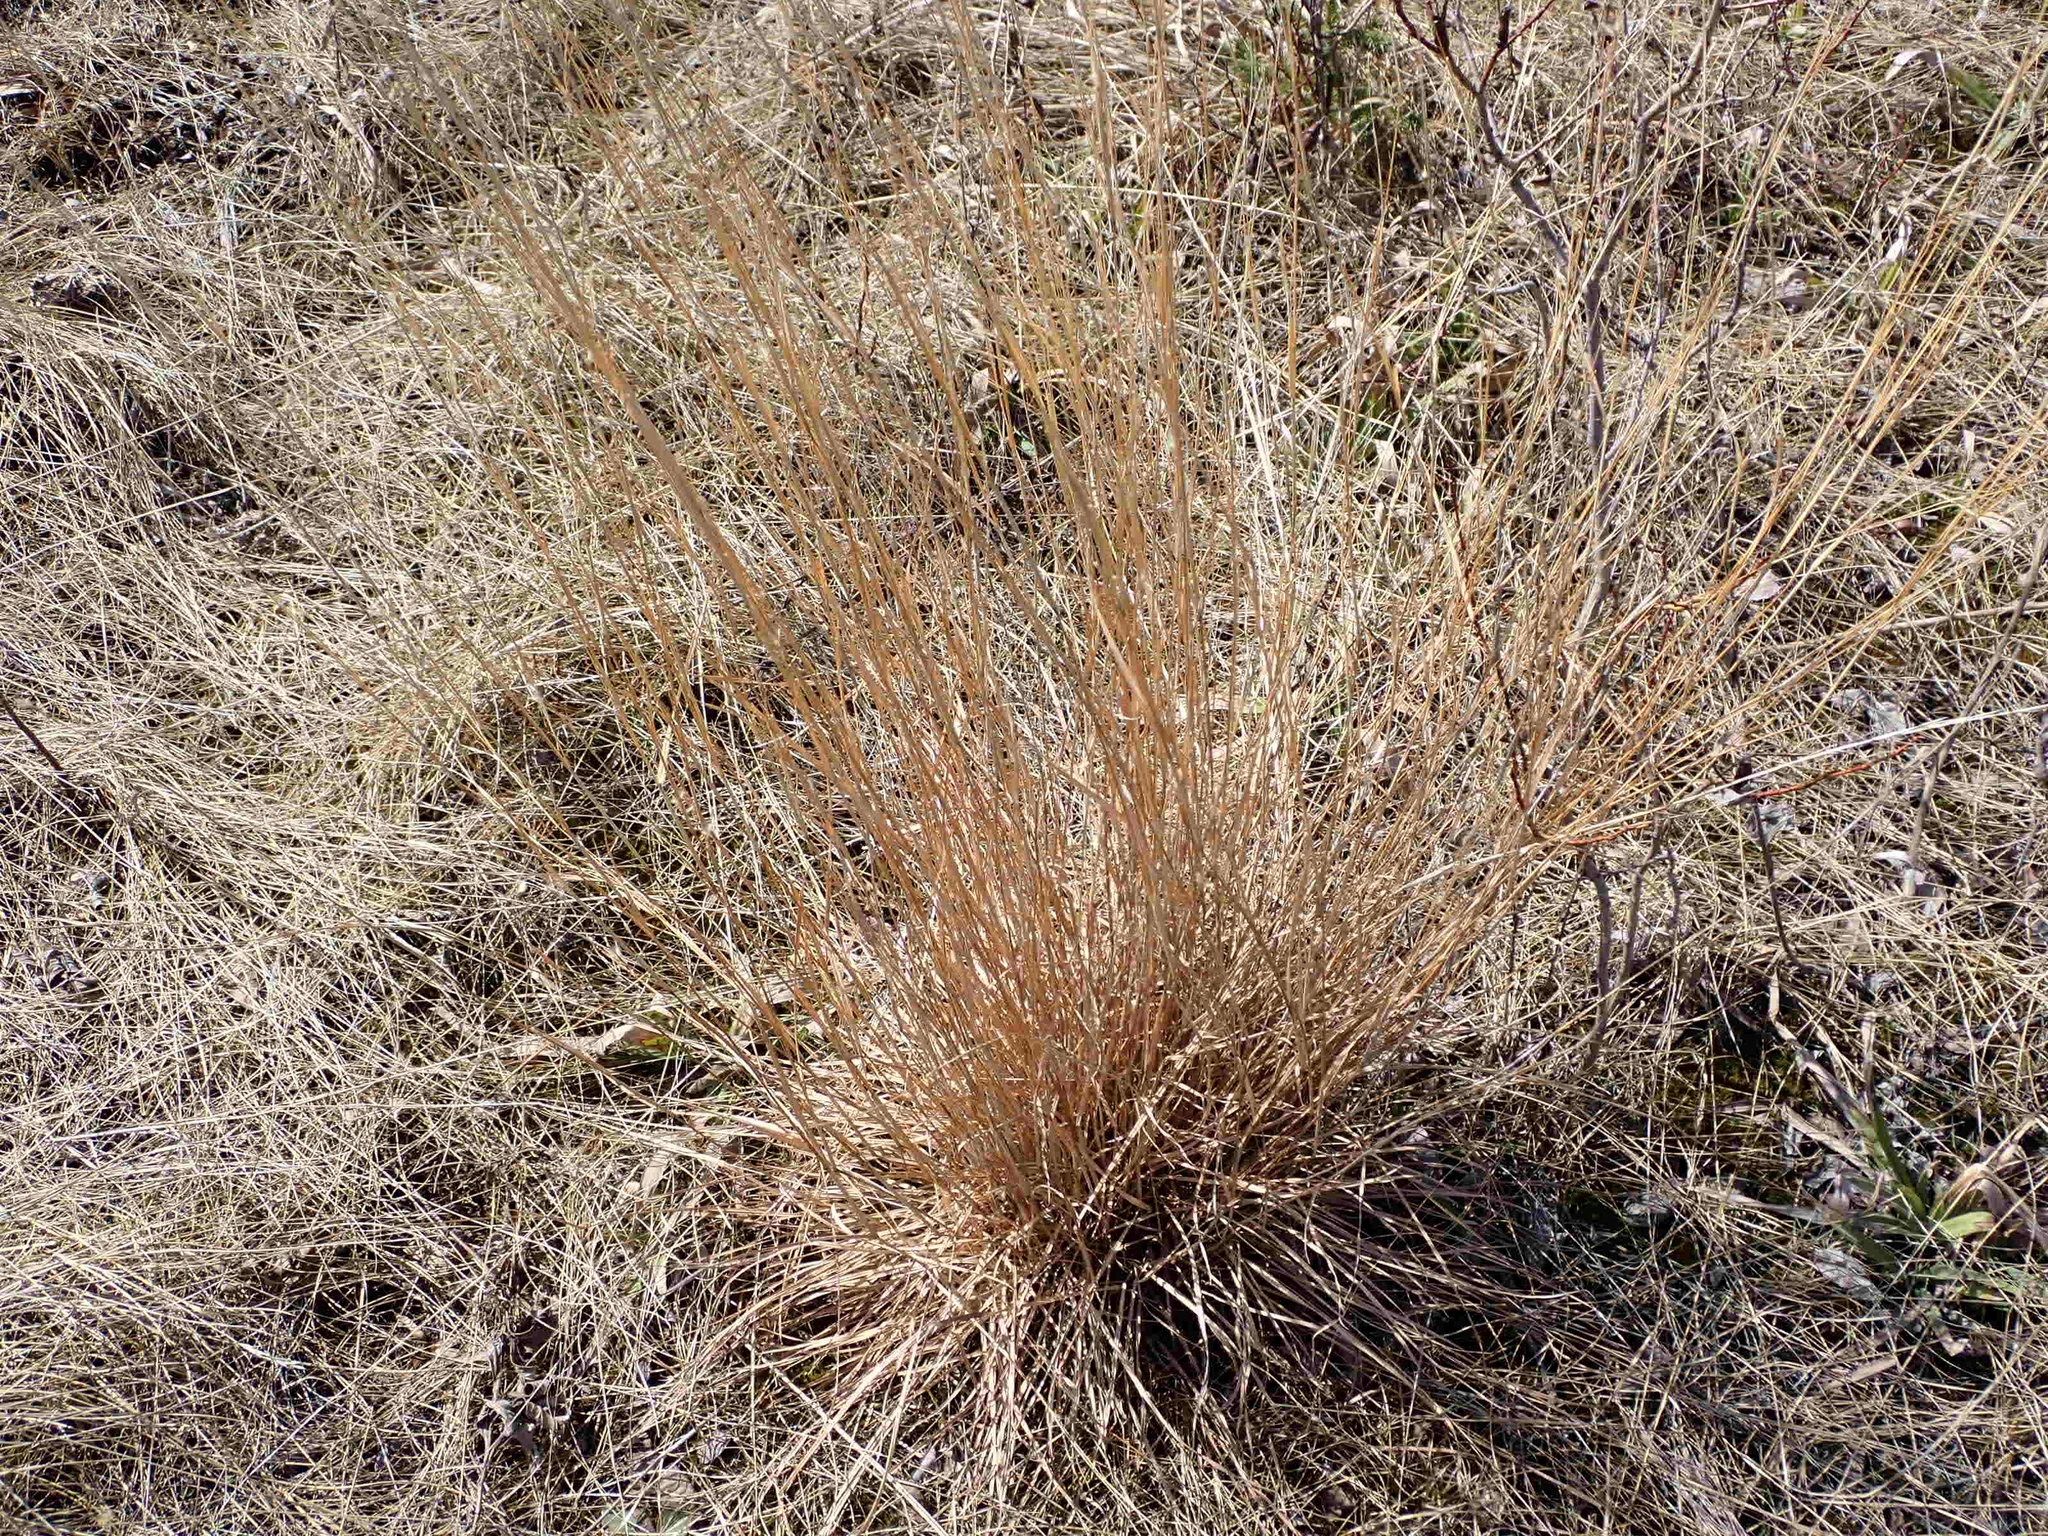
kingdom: Plantae
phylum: Tracheophyta
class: Liliopsida
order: Poales
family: Poaceae
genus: Schizachyrium
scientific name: Schizachyrium scoparium
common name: Little bluestem
